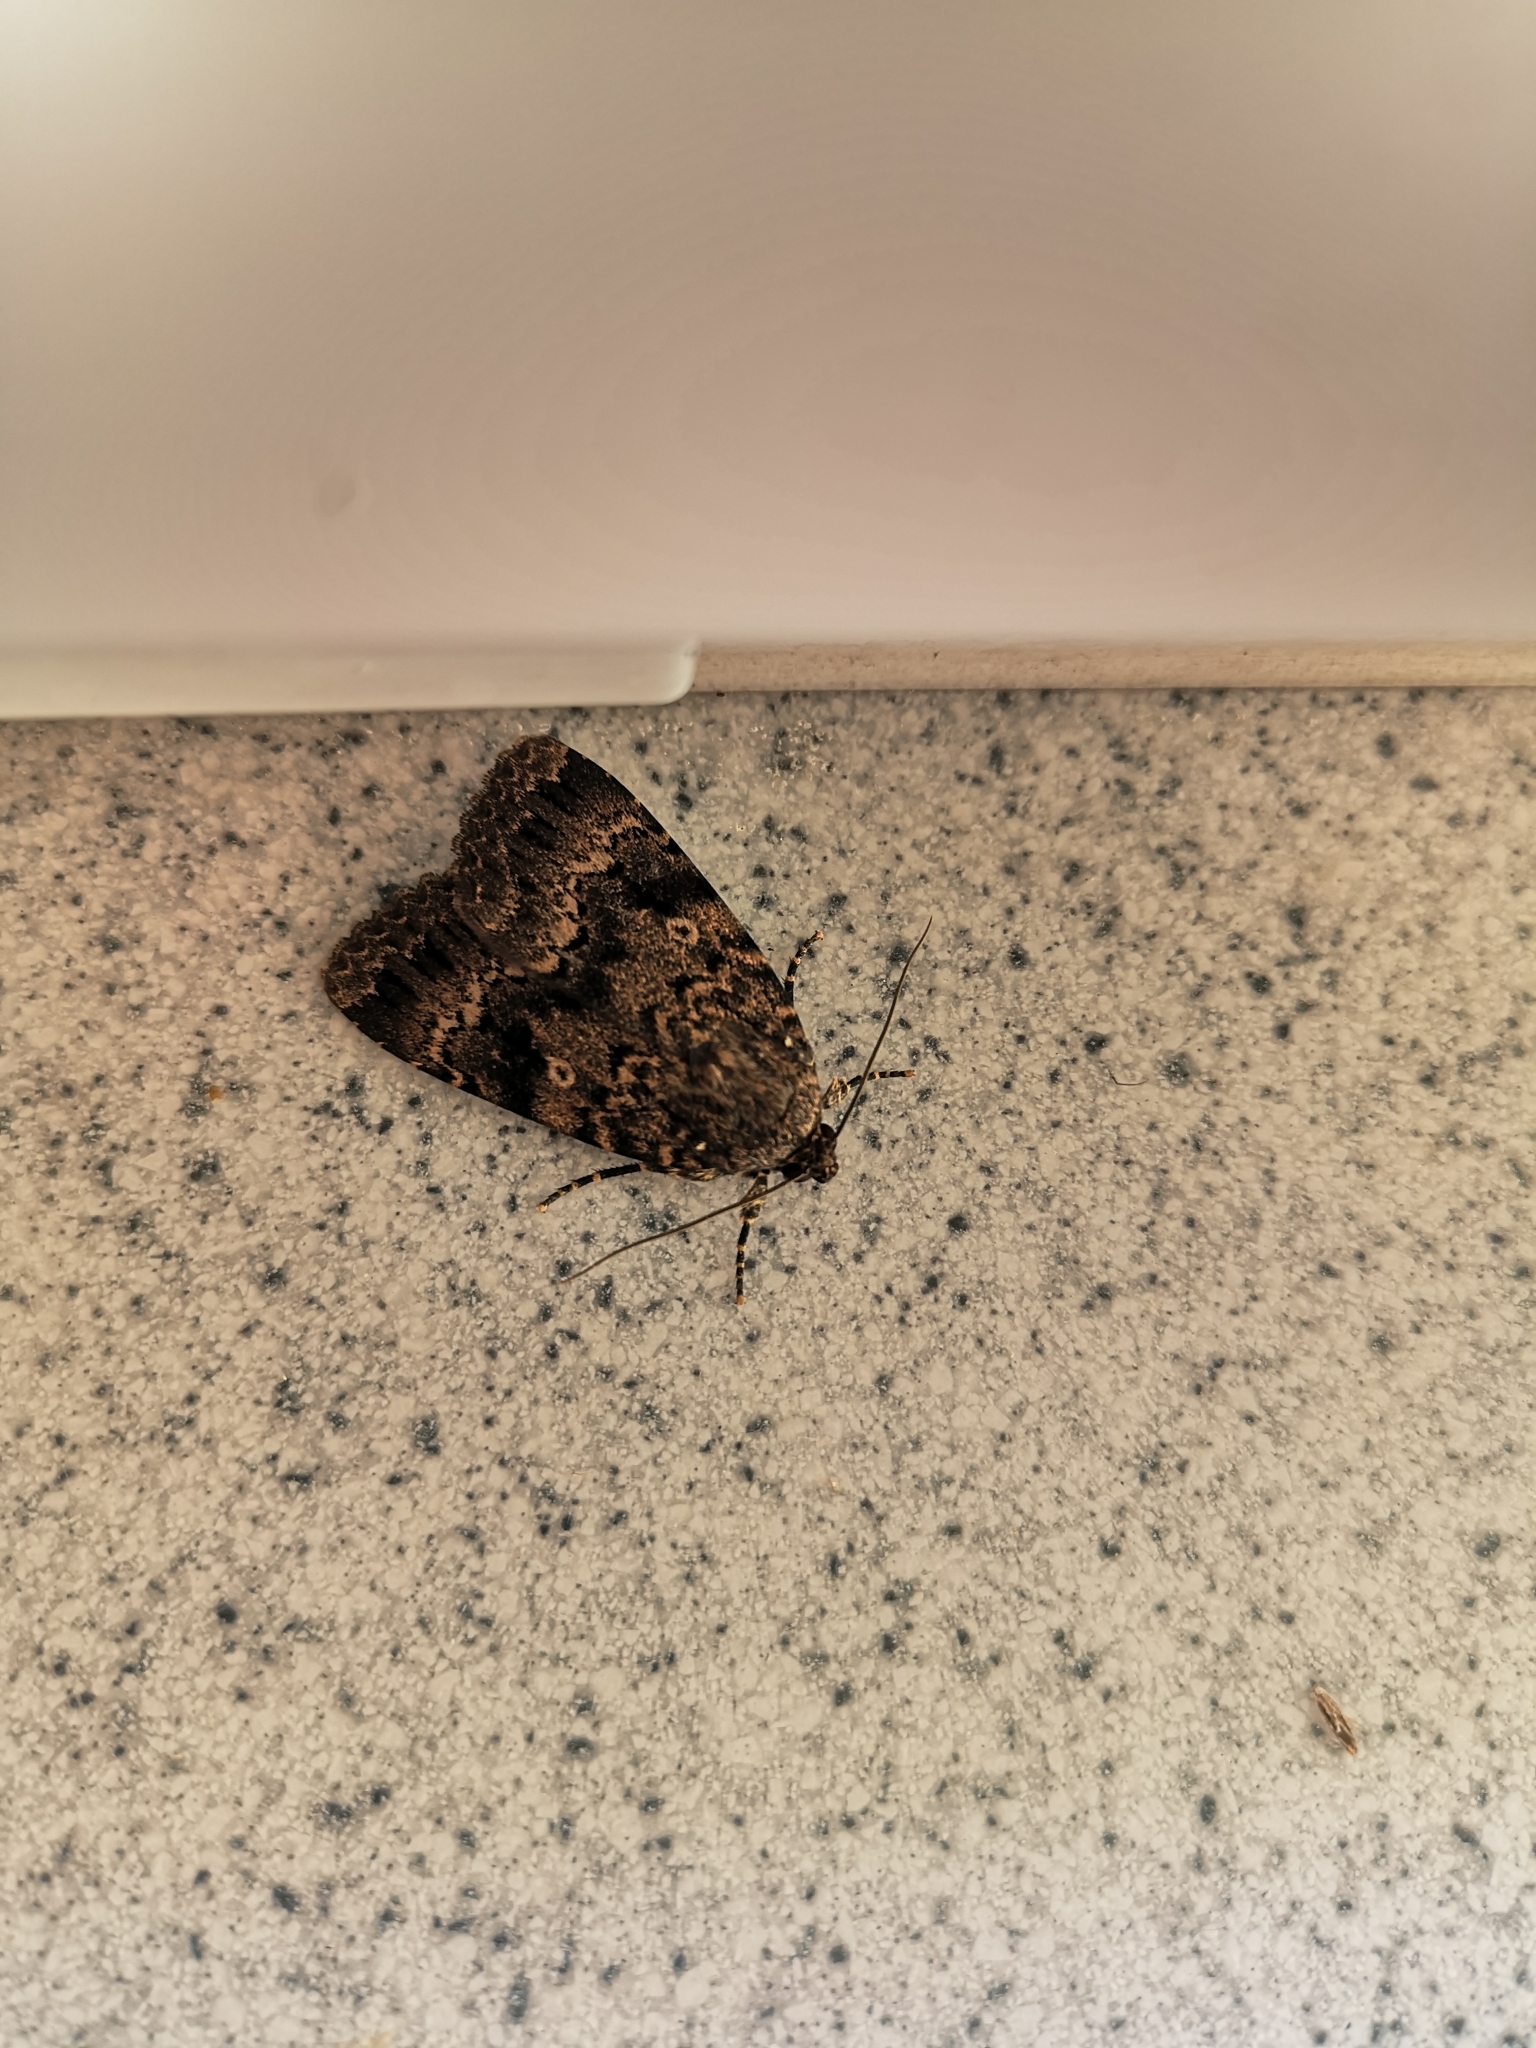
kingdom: Animalia
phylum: Arthropoda
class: Insecta
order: Lepidoptera
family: Noctuidae
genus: Amphipyra
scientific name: Amphipyra berbera
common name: Svensson's copper underwing
